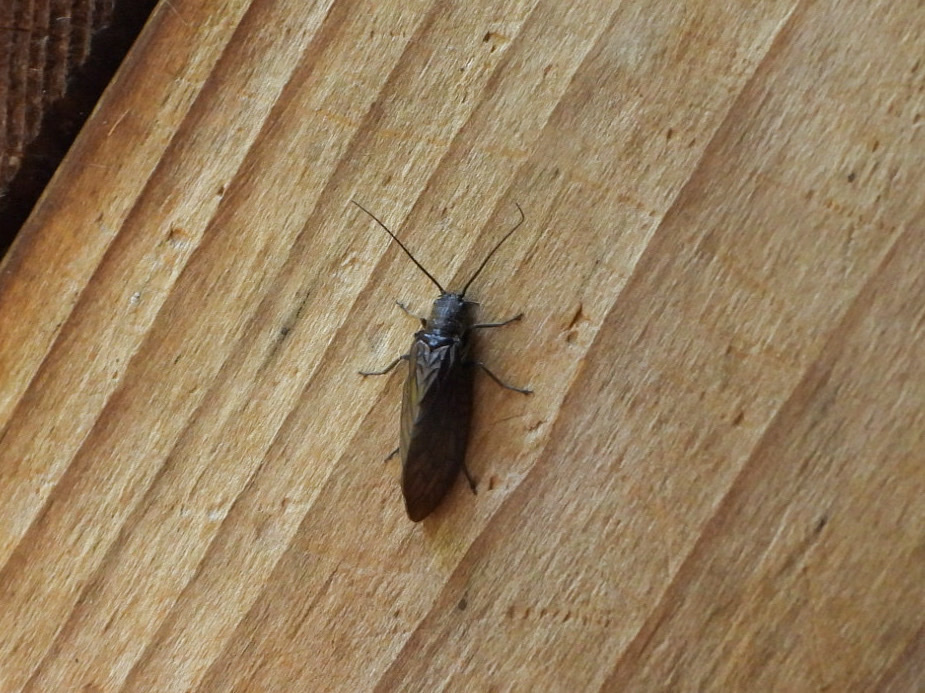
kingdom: Animalia
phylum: Arthropoda
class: Insecta
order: Megaloptera
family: Sialidae
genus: Sialis
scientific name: Sialis
